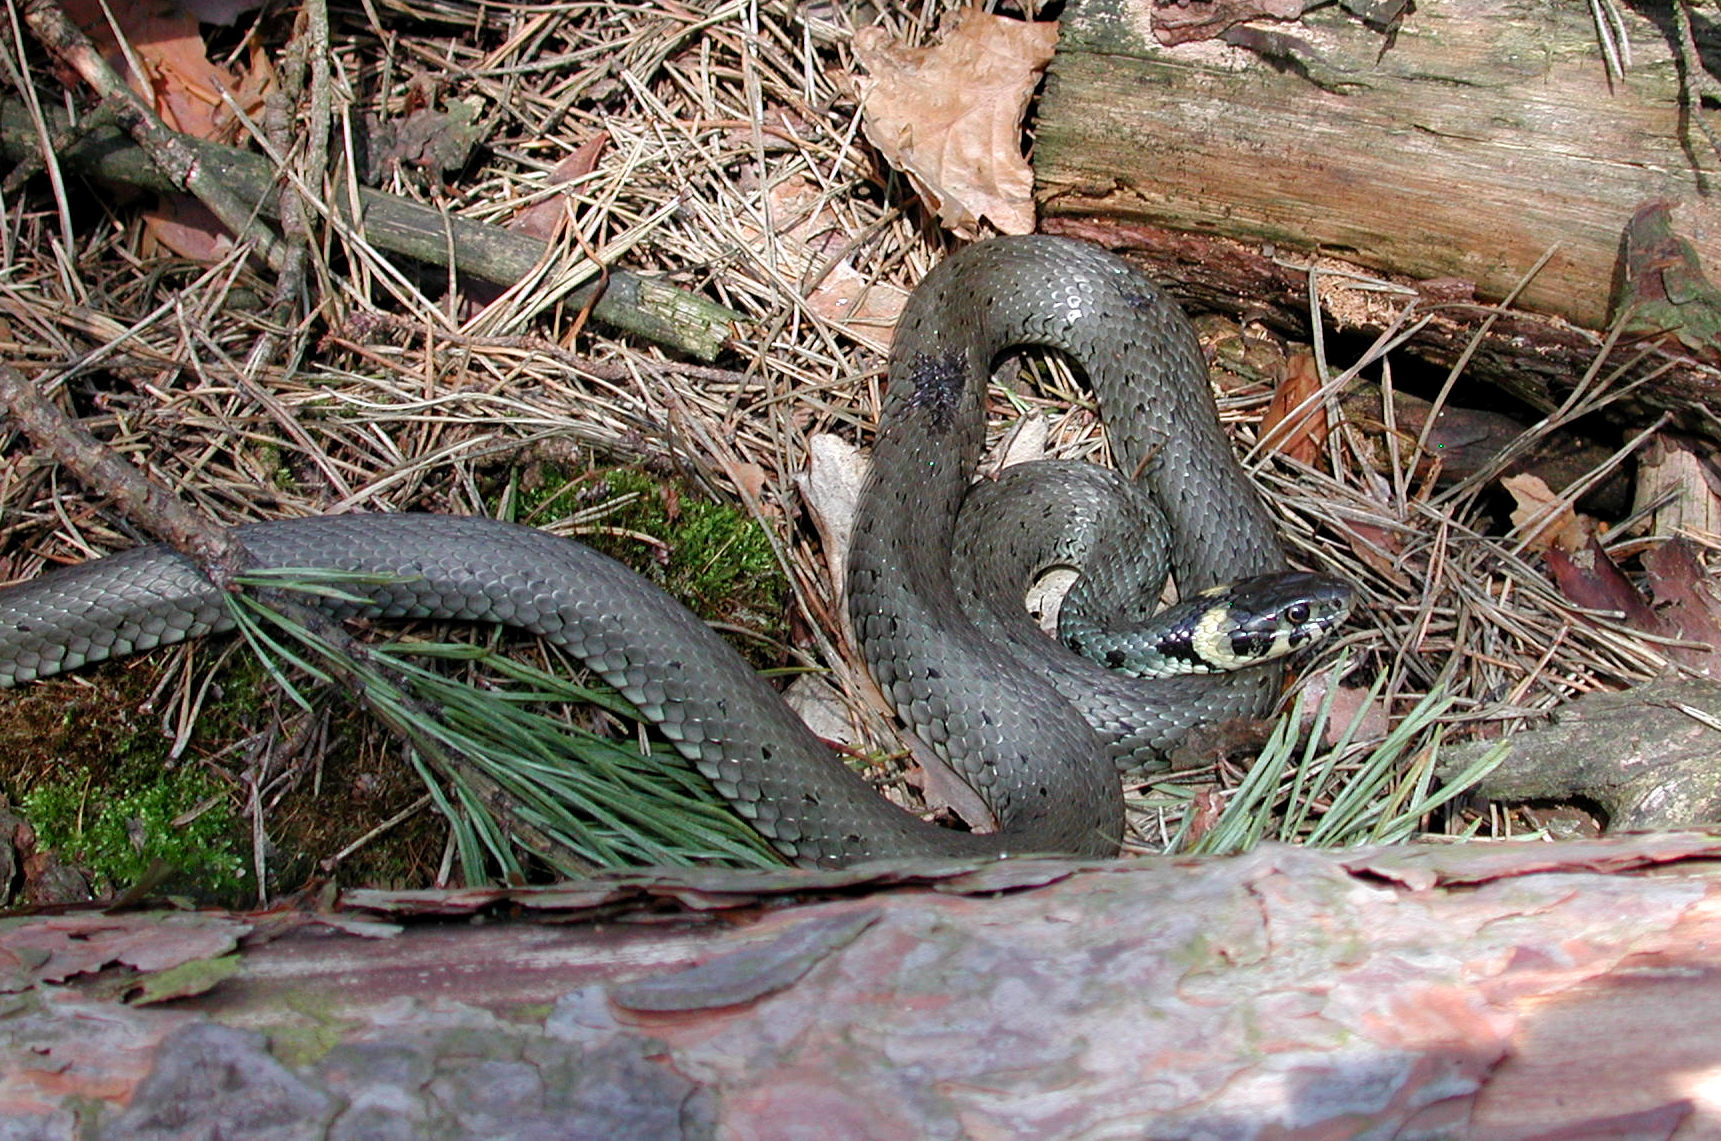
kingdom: Animalia
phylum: Chordata
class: Squamata
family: Colubridae
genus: Natrix
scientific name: Natrix natrix
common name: Grass snake
